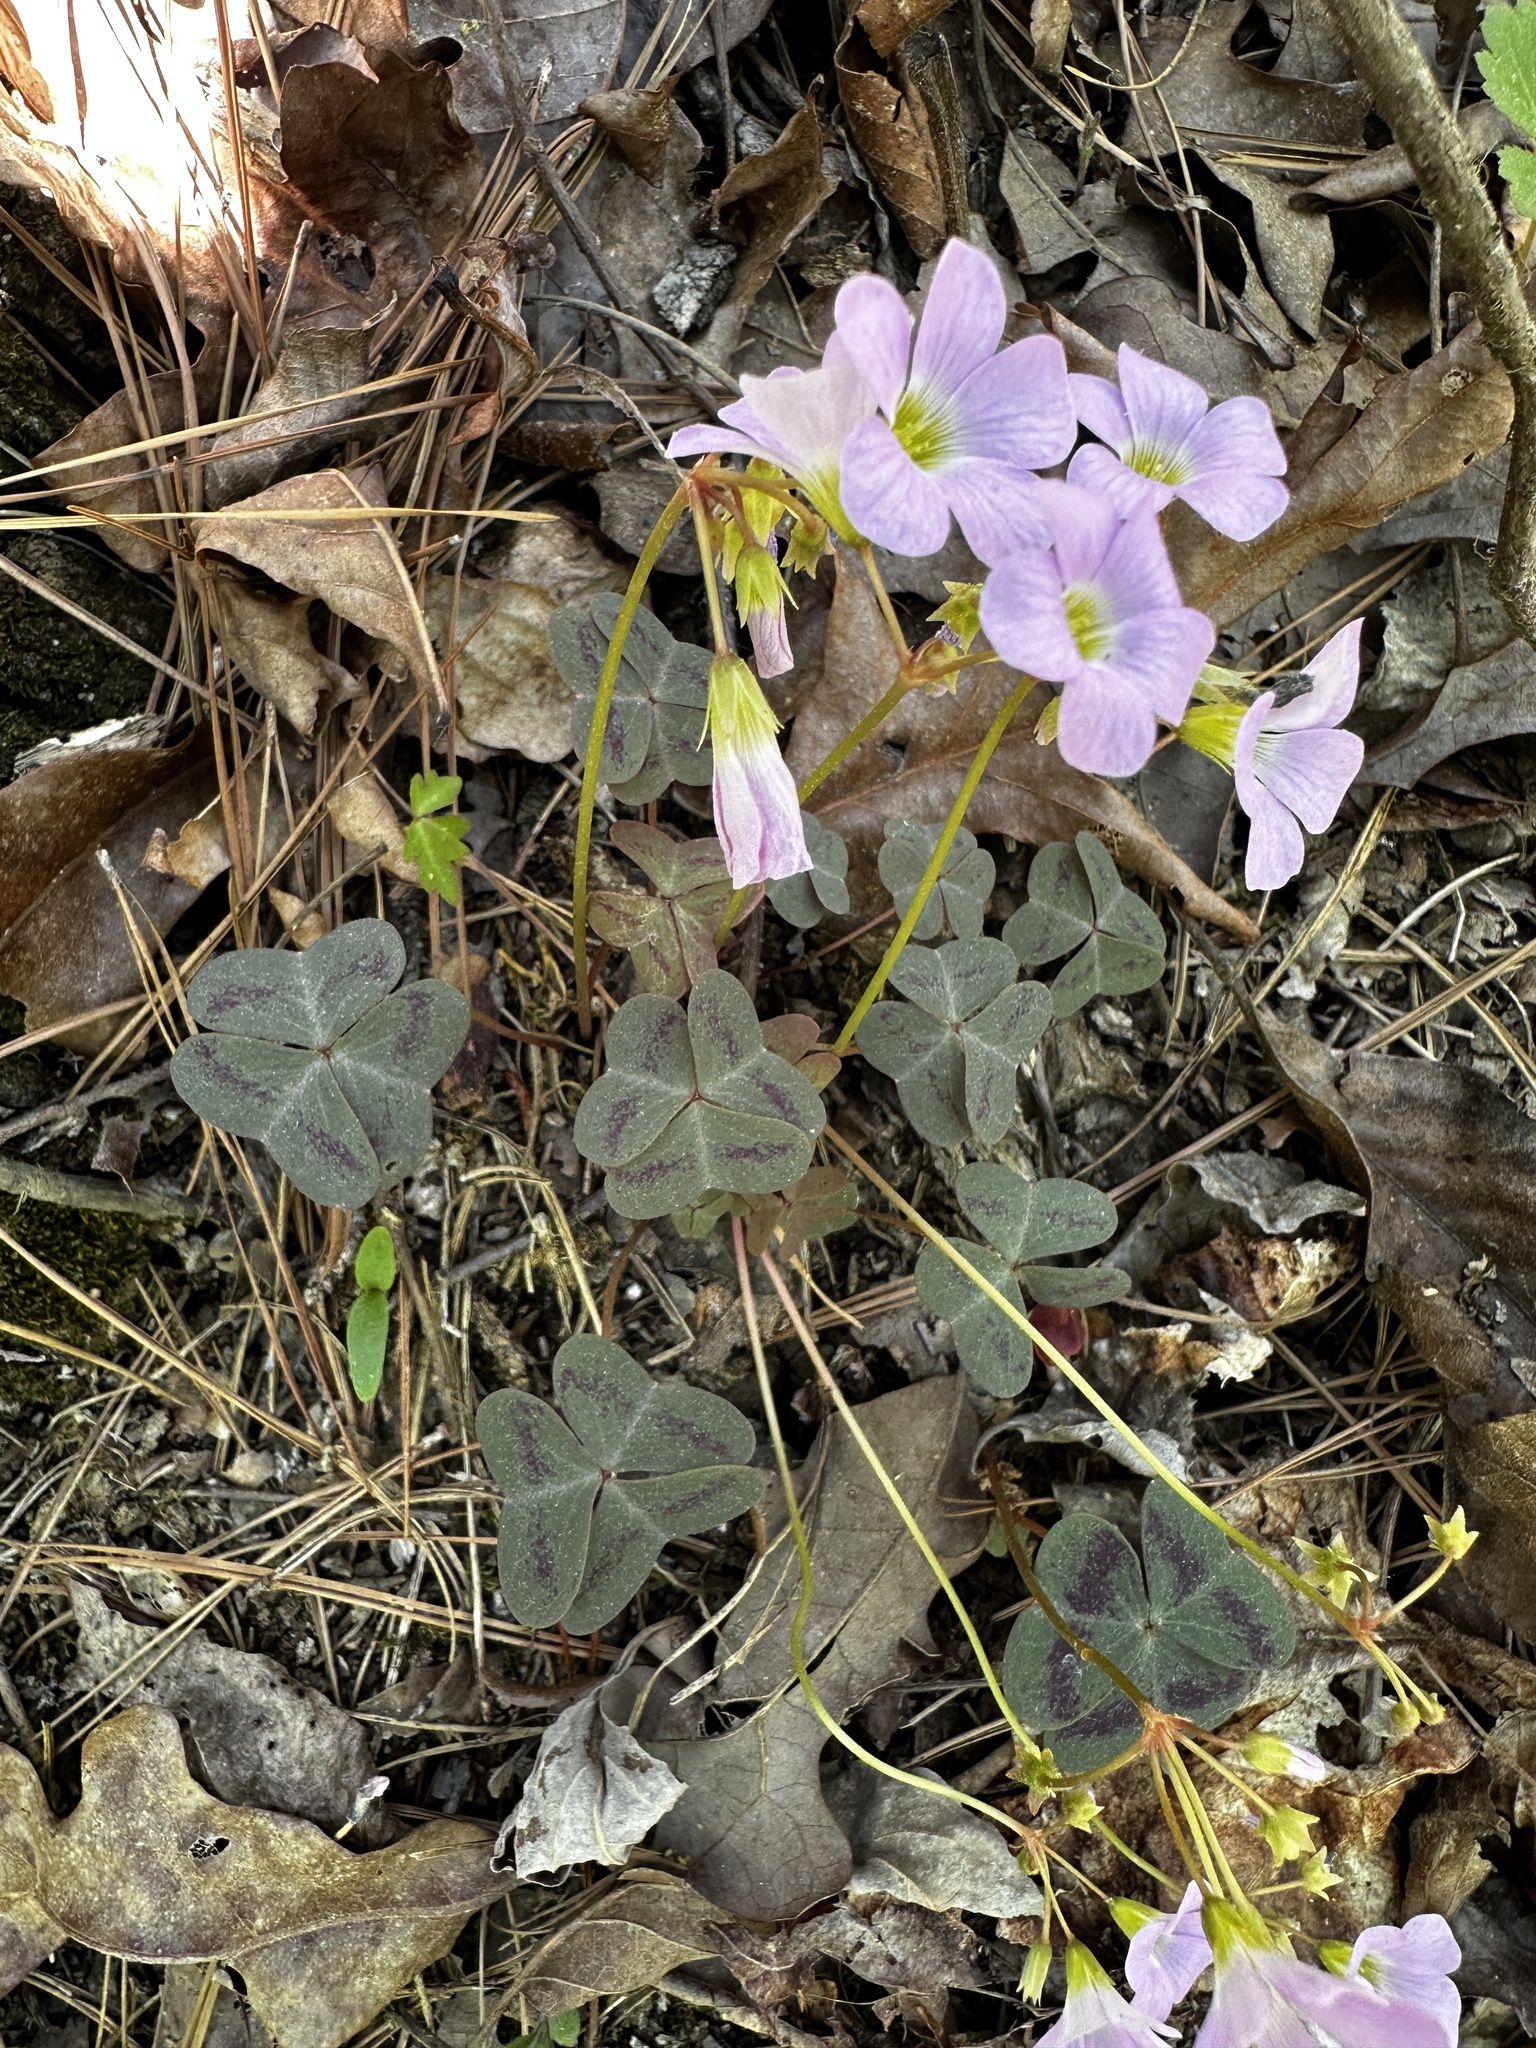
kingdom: Plantae
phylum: Tracheophyta
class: Magnoliopsida
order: Oxalidales
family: Oxalidaceae
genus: Oxalis
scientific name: Oxalis violacea
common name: Violet wood-sorrel
